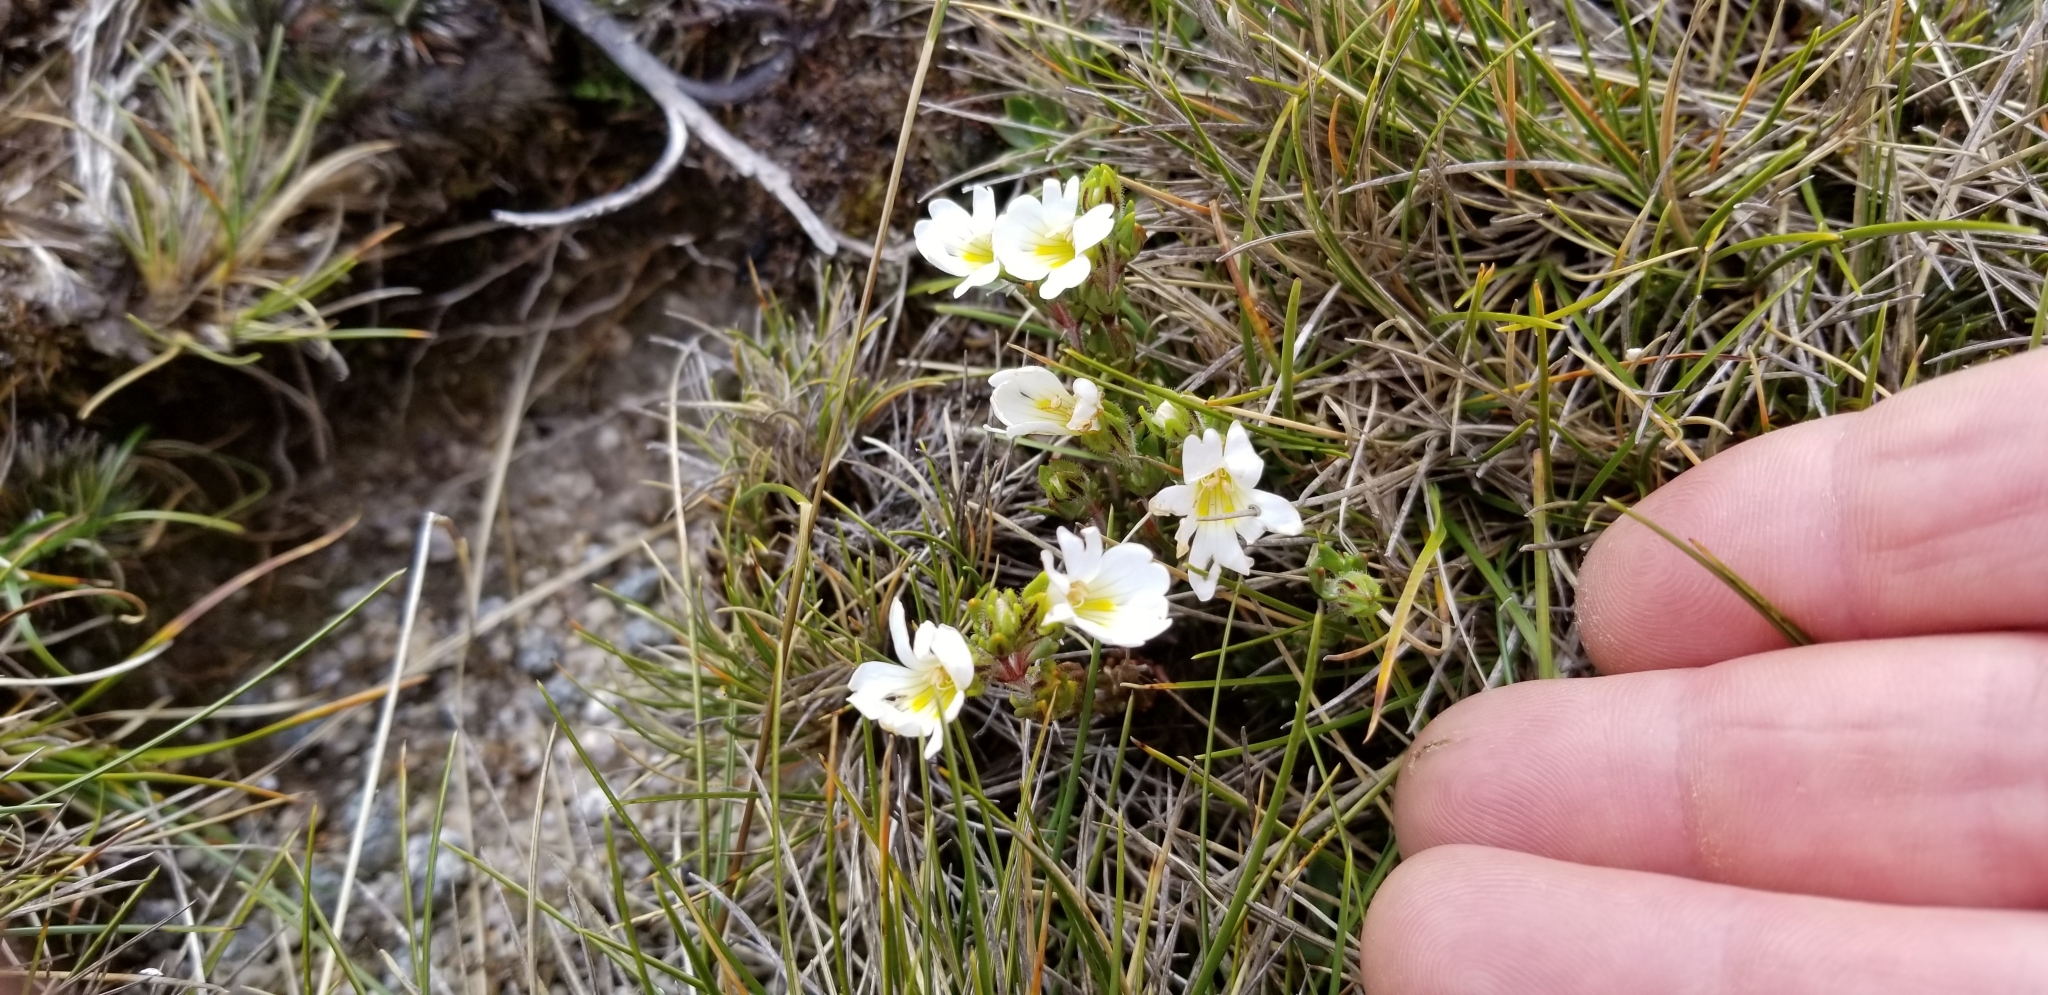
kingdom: Plantae
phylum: Tracheophyta
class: Magnoliopsida
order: Lamiales
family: Orobanchaceae
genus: Euphrasia
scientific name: Euphrasia townsonii
